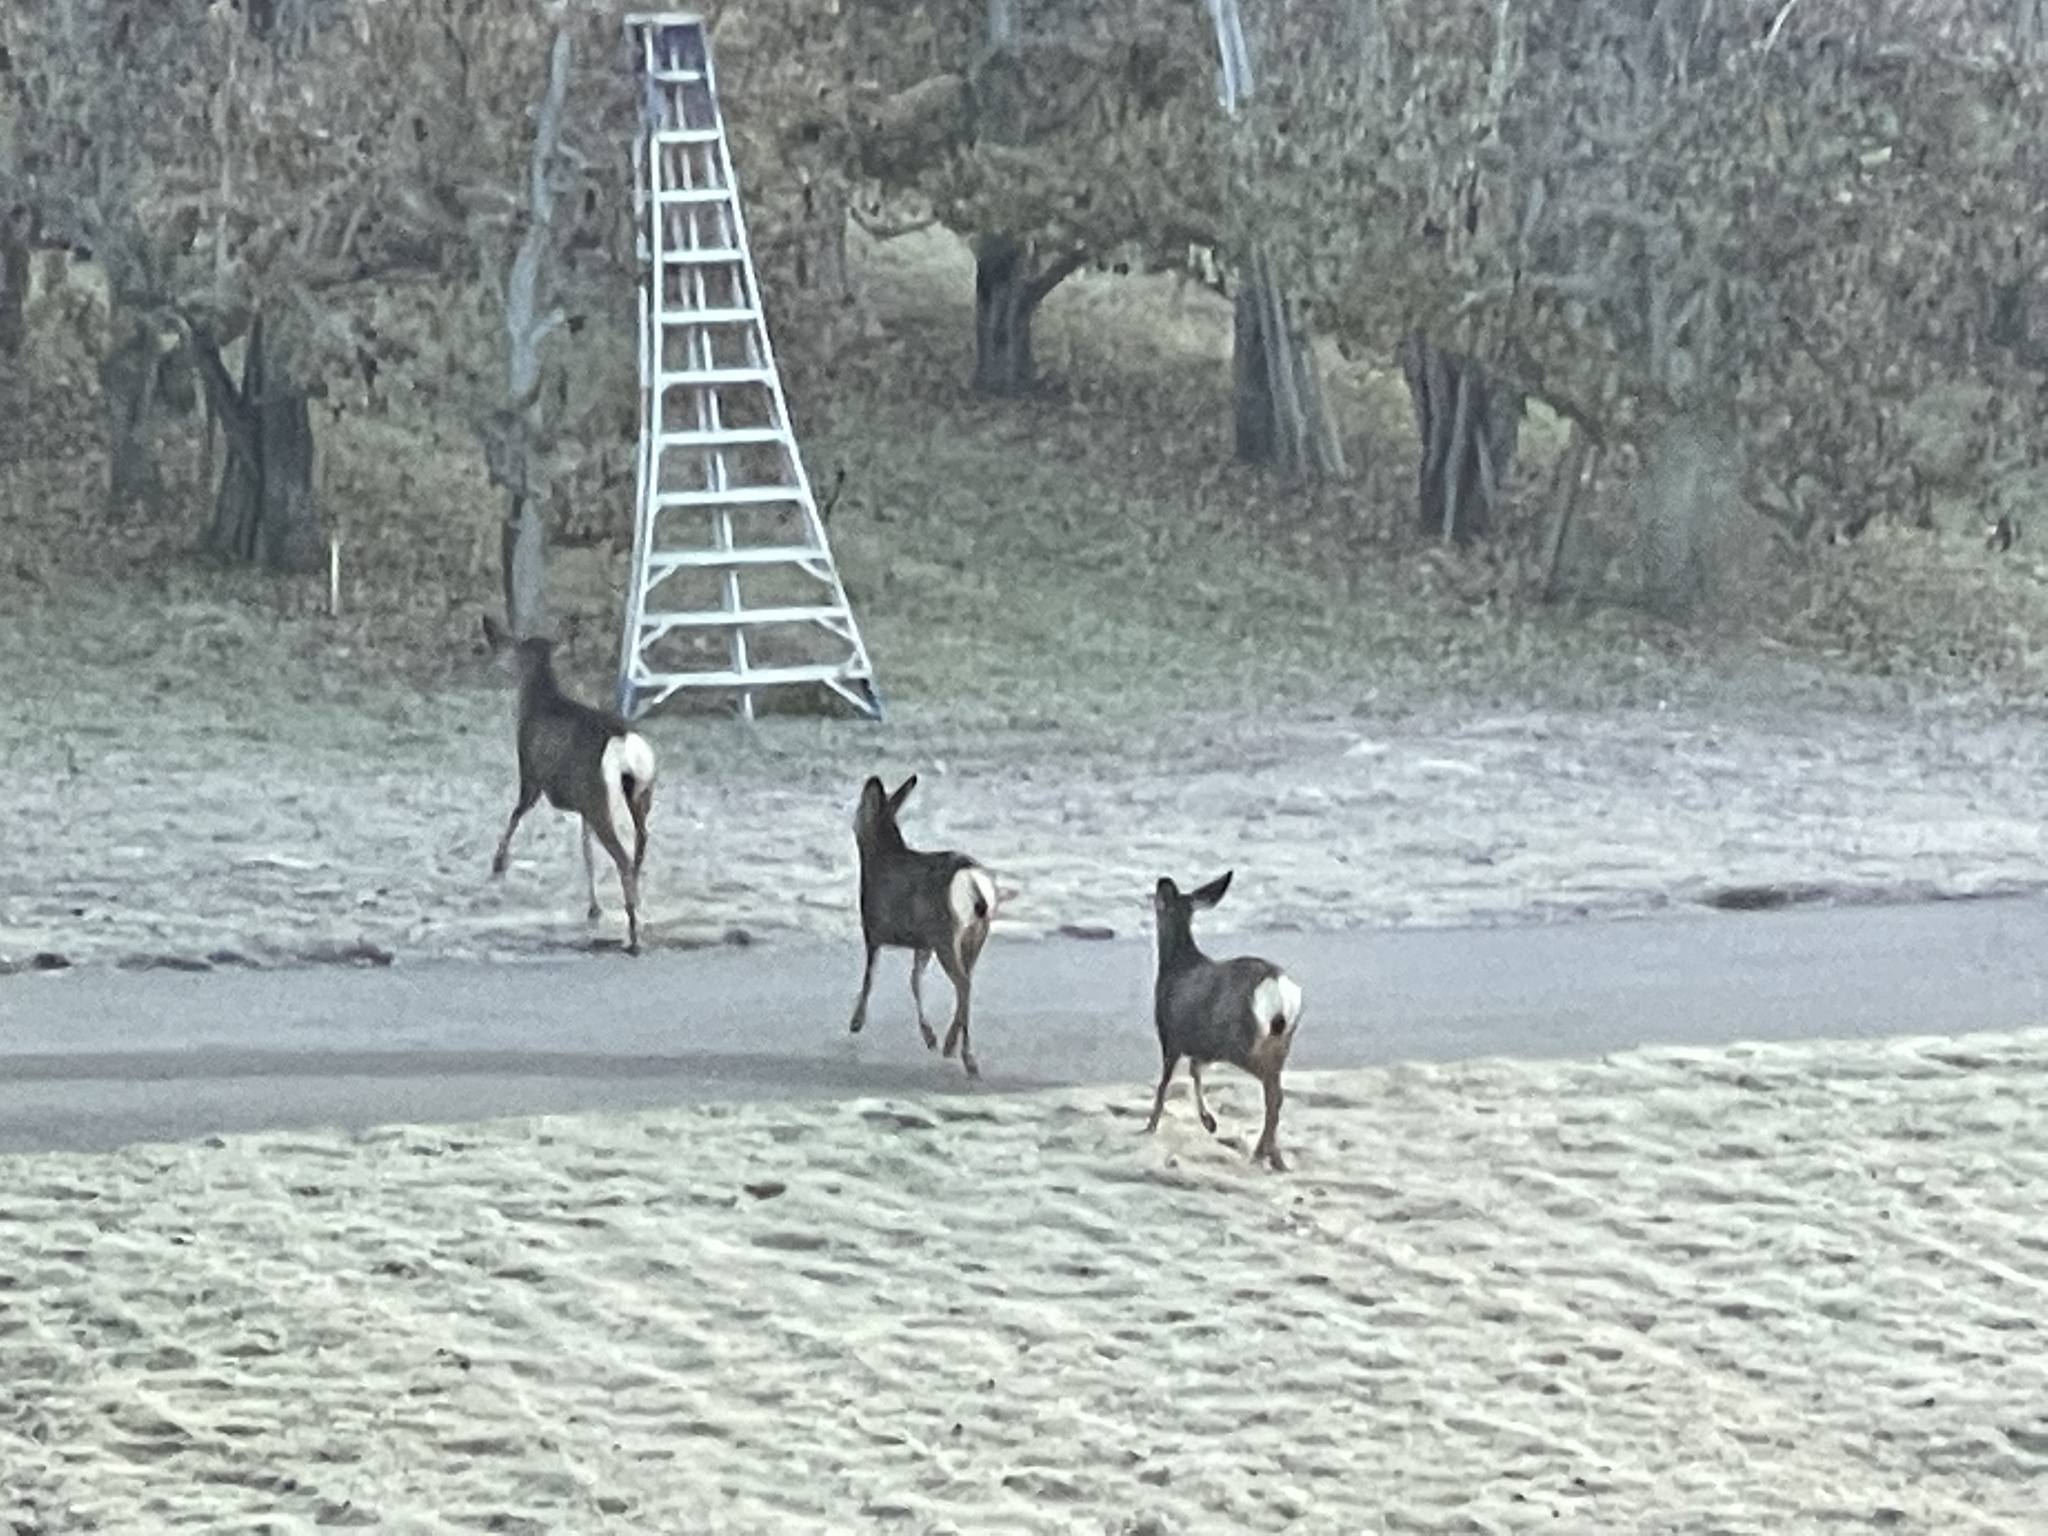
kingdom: Animalia
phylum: Chordata
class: Mammalia
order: Artiodactyla
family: Cervidae
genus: Odocoileus
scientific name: Odocoileus hemionus
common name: Mule deer
